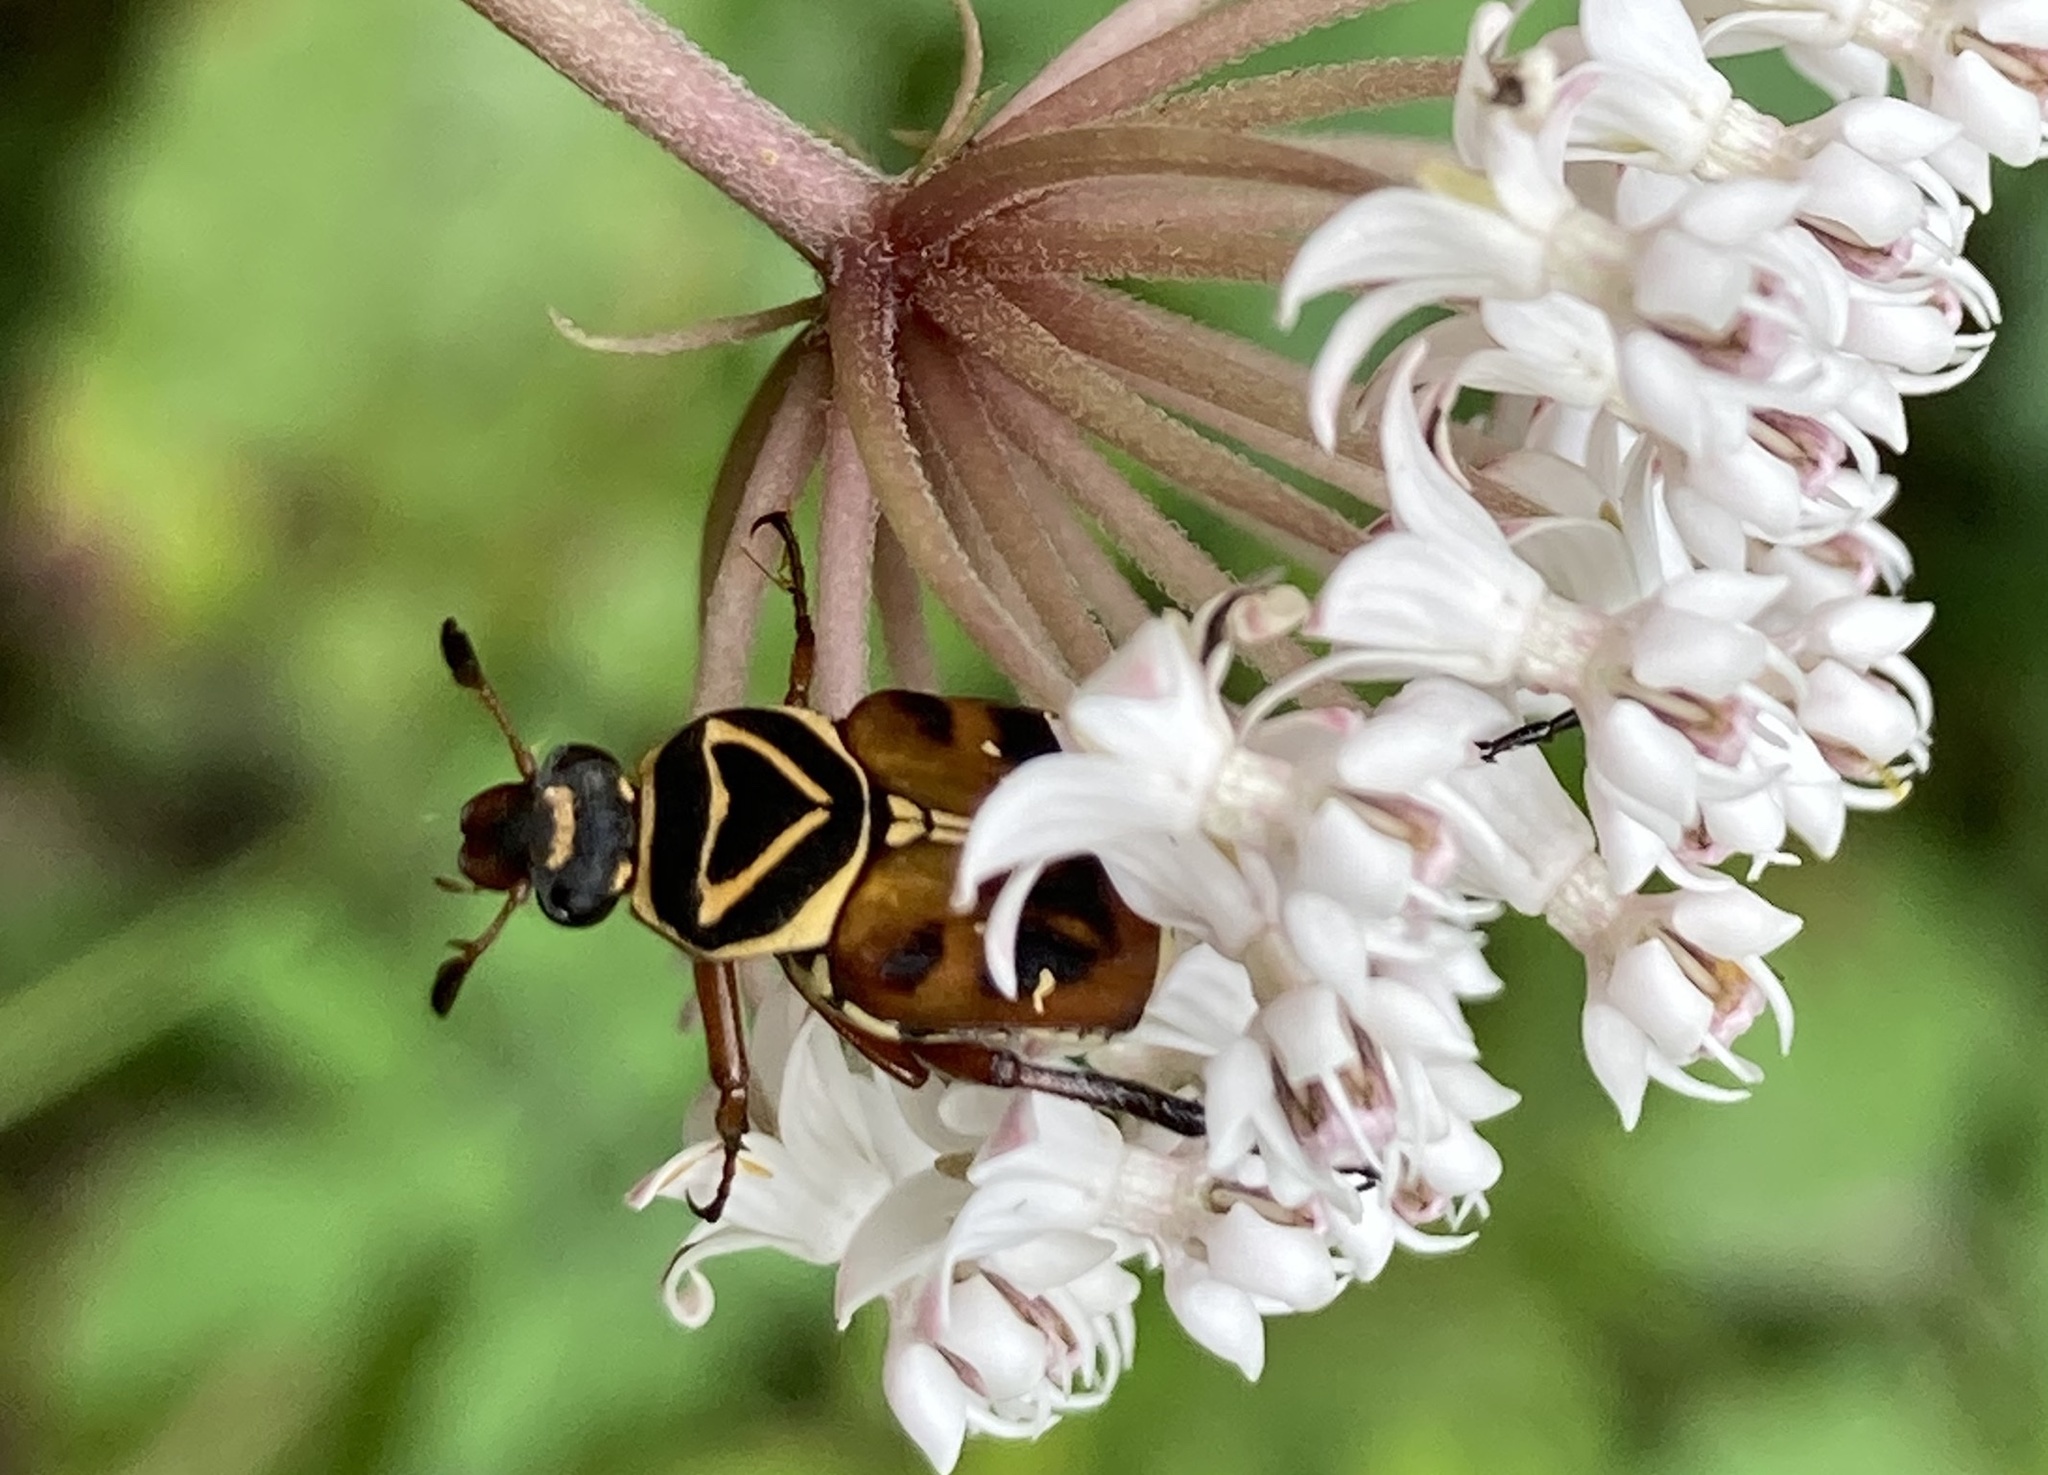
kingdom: Animalia
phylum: Arthropoda
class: Insecta
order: Coleoptera
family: Scarabaeidae
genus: Trigonopeltastes
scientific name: Trigonopeltastes delta
